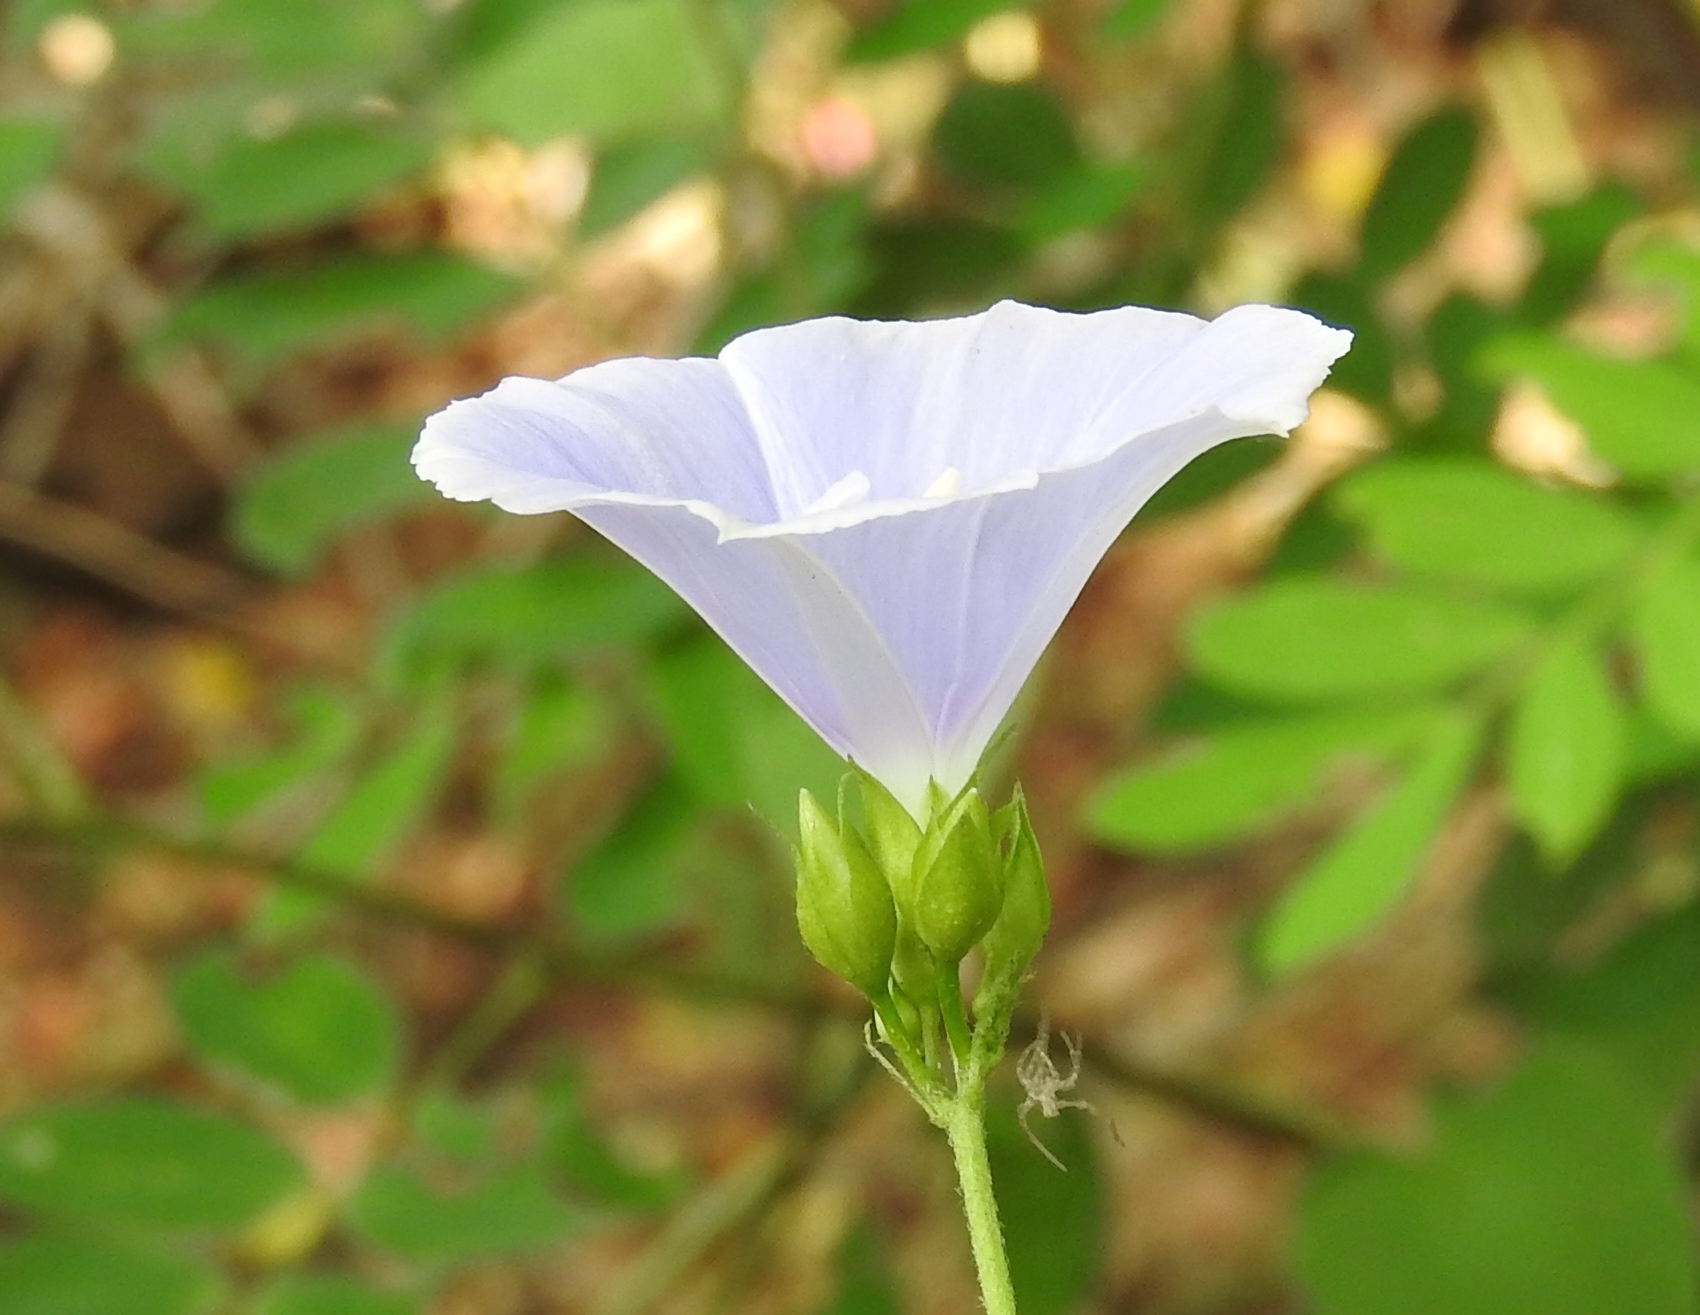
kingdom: Plantae
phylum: Tracheophyta
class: Magnoliopsida
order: Solanales
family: Convolvulaceae
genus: Jacquemontia
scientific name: Jacquemontia
